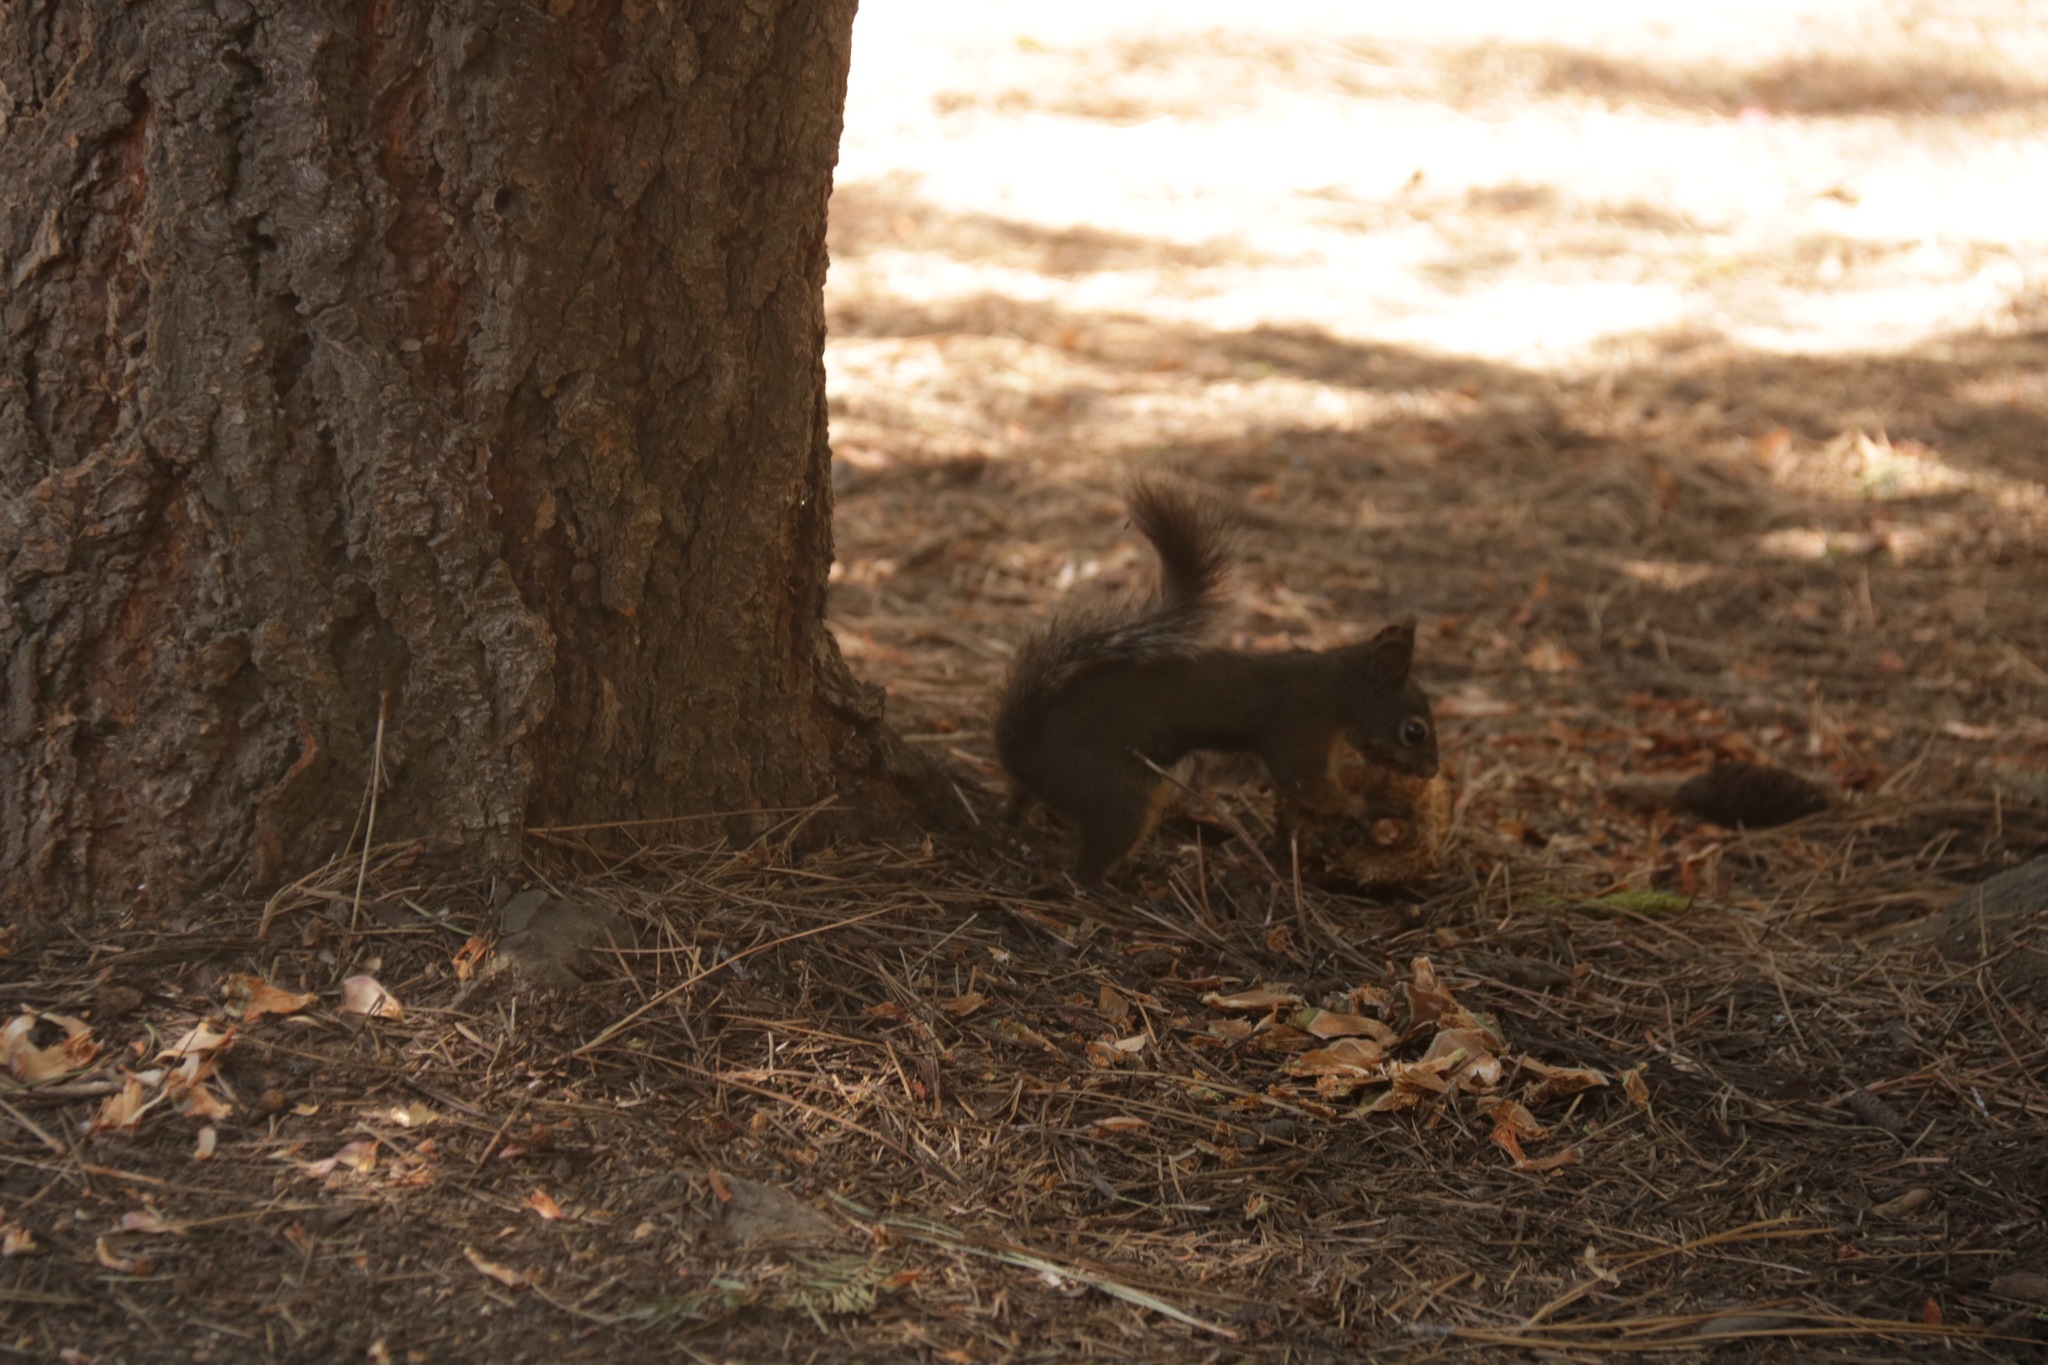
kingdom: Animalia
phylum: Chordata
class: Mammalia
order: Rodentia
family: Sciuridae
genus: Tamiasciurus
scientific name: Tamiasciurus douglasii
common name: Douglas's squirrel
